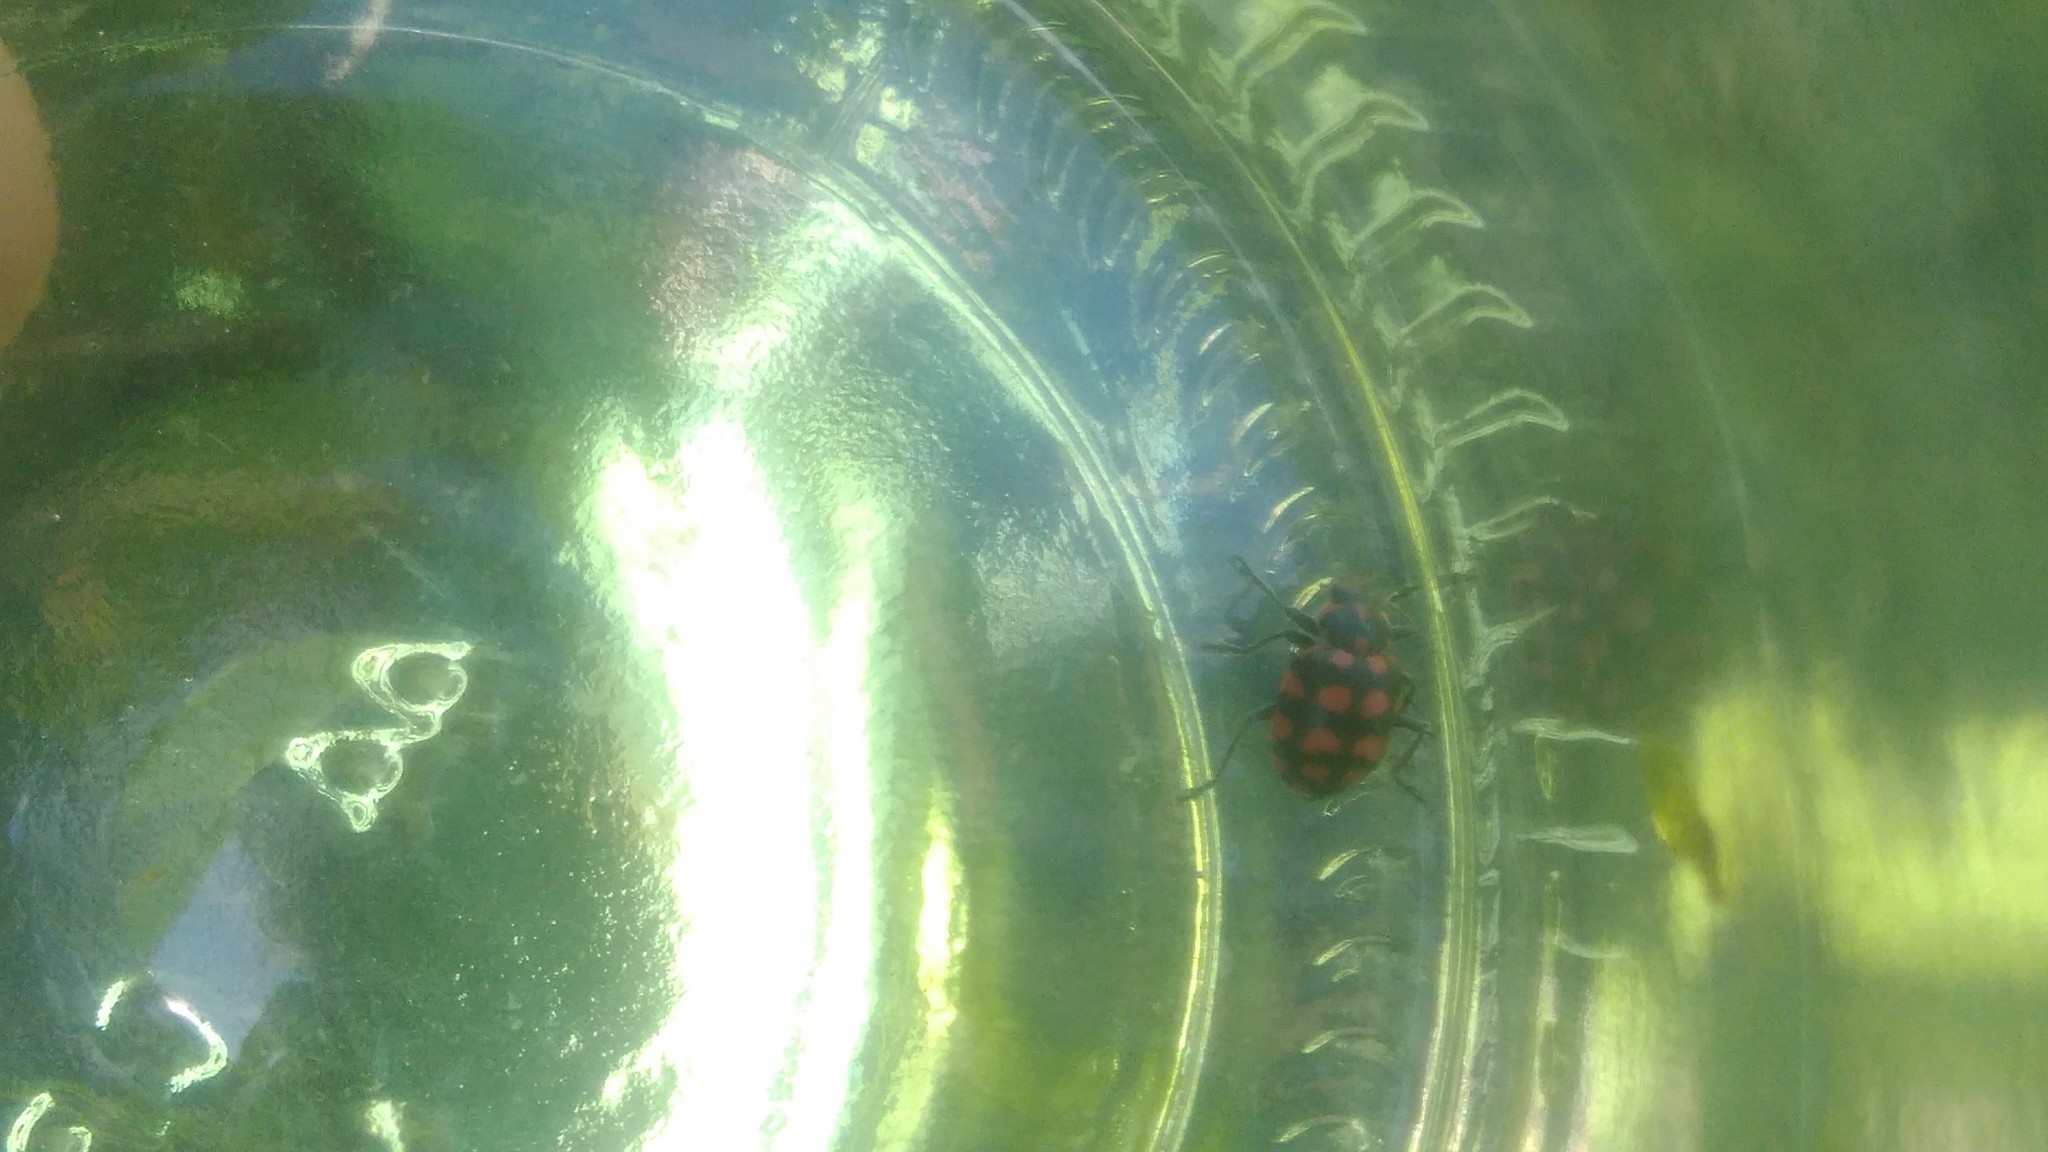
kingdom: Animalia
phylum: Arthropoda
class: Insecta
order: Coleoptera
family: Coccinellidae
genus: Coleomegilla
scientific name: Coleomegilla
